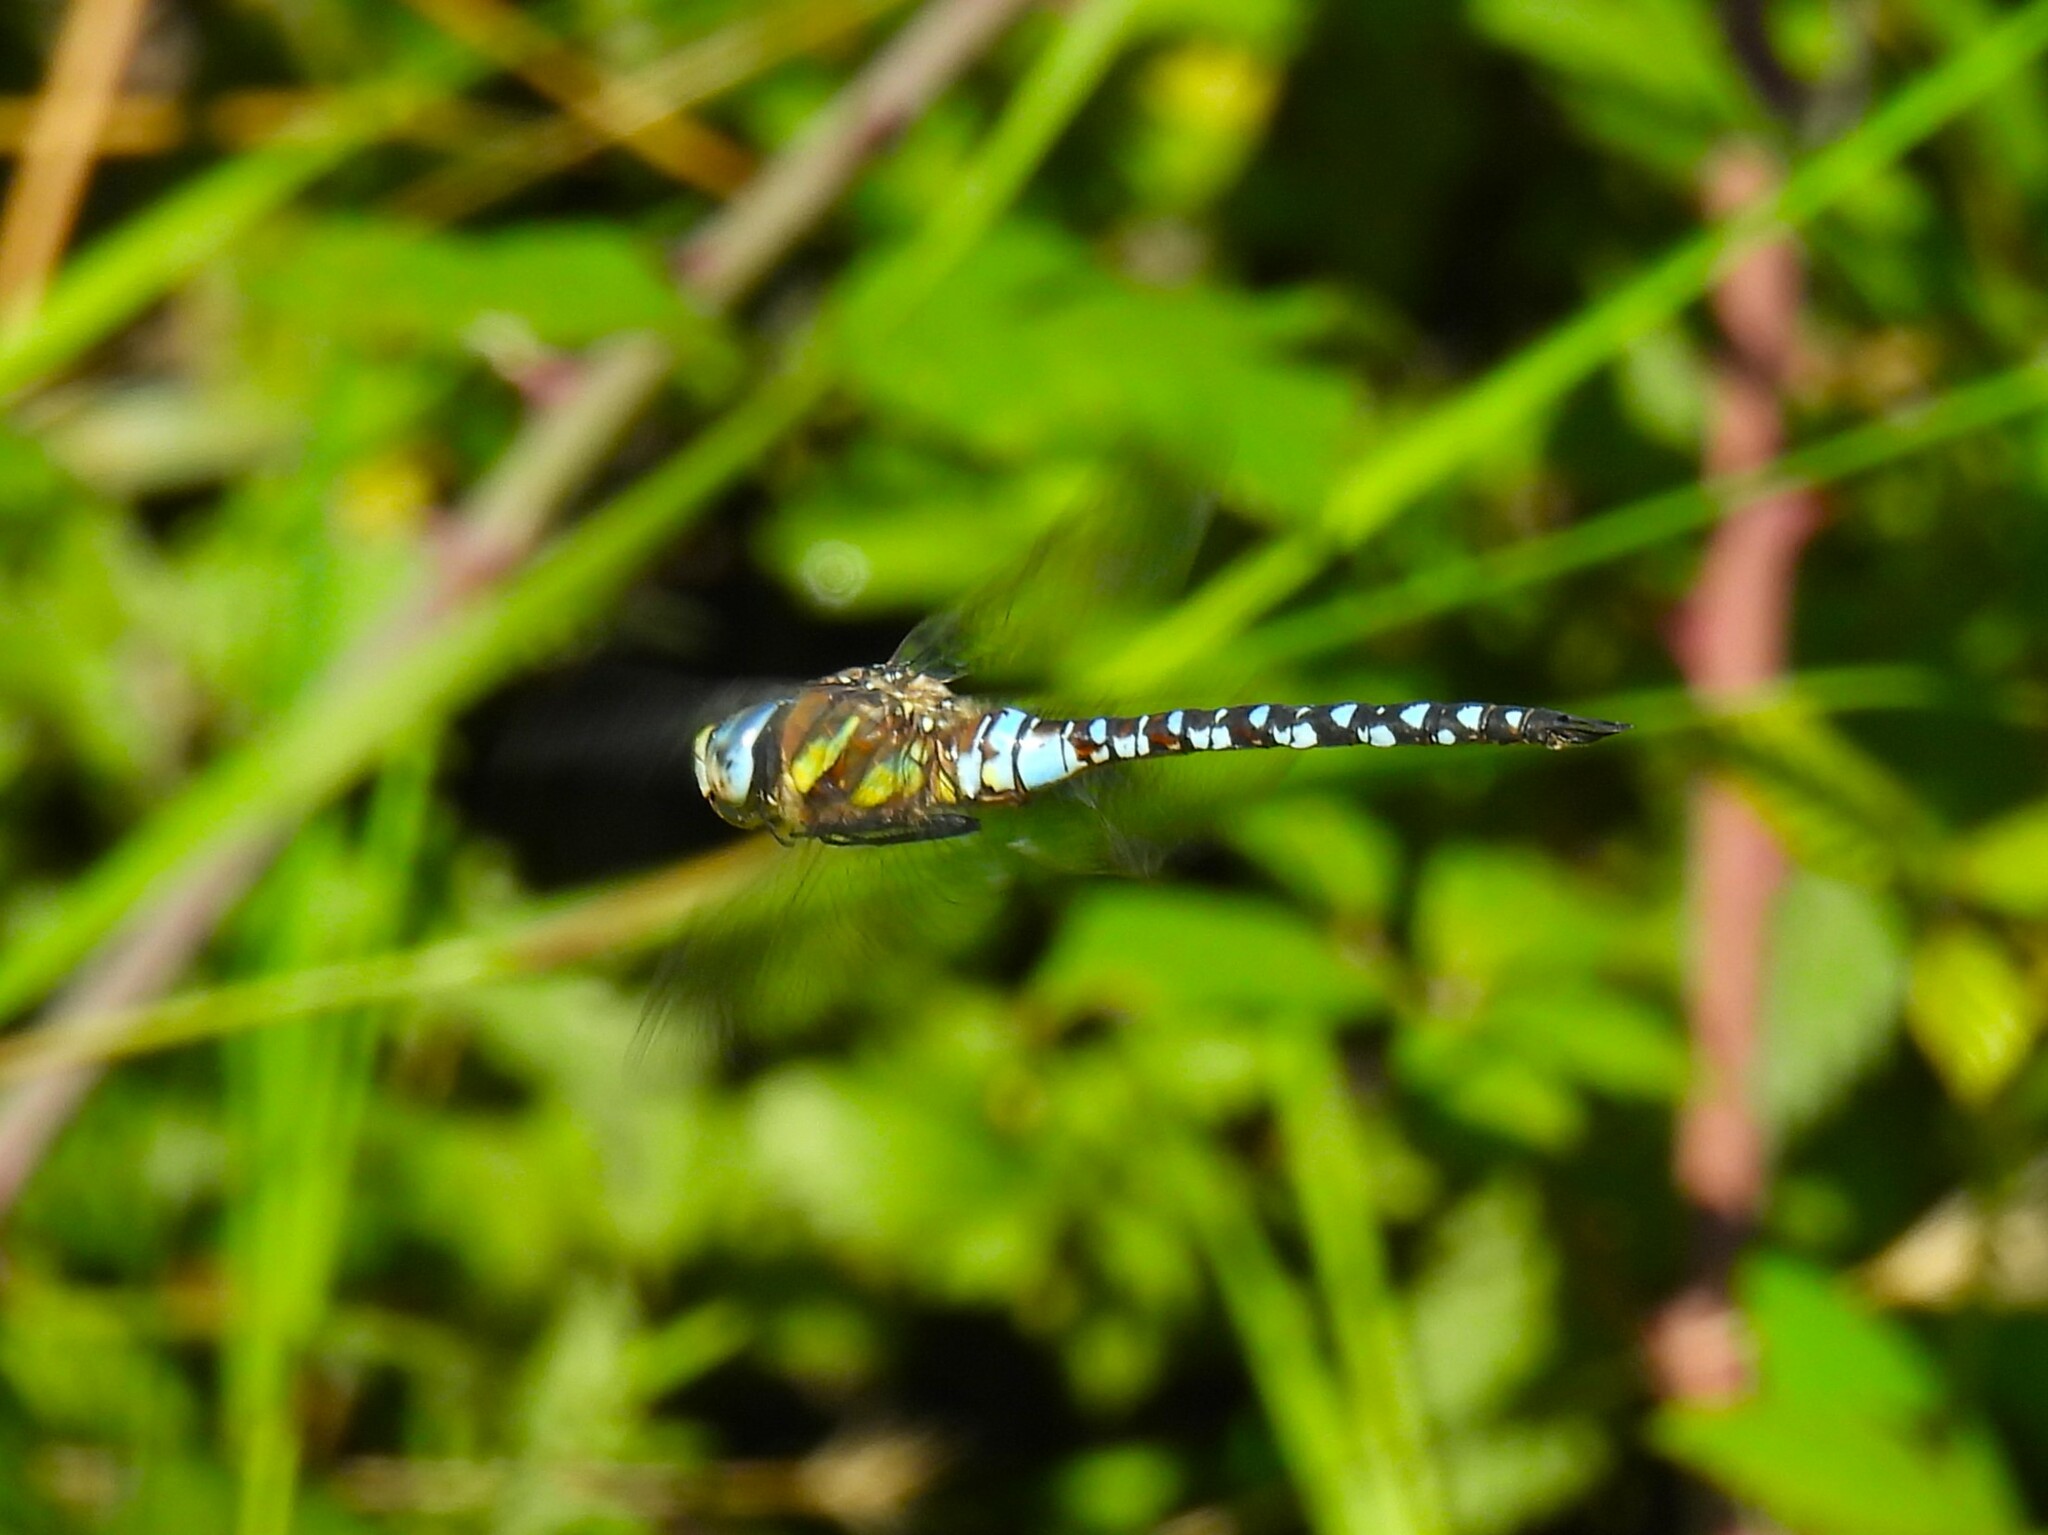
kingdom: Animalia
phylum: Arthropoda
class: Insecta
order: Odonata
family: Aeshnidae
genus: Aeshna
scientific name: Aeshna mixta
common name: Migrant hawker
